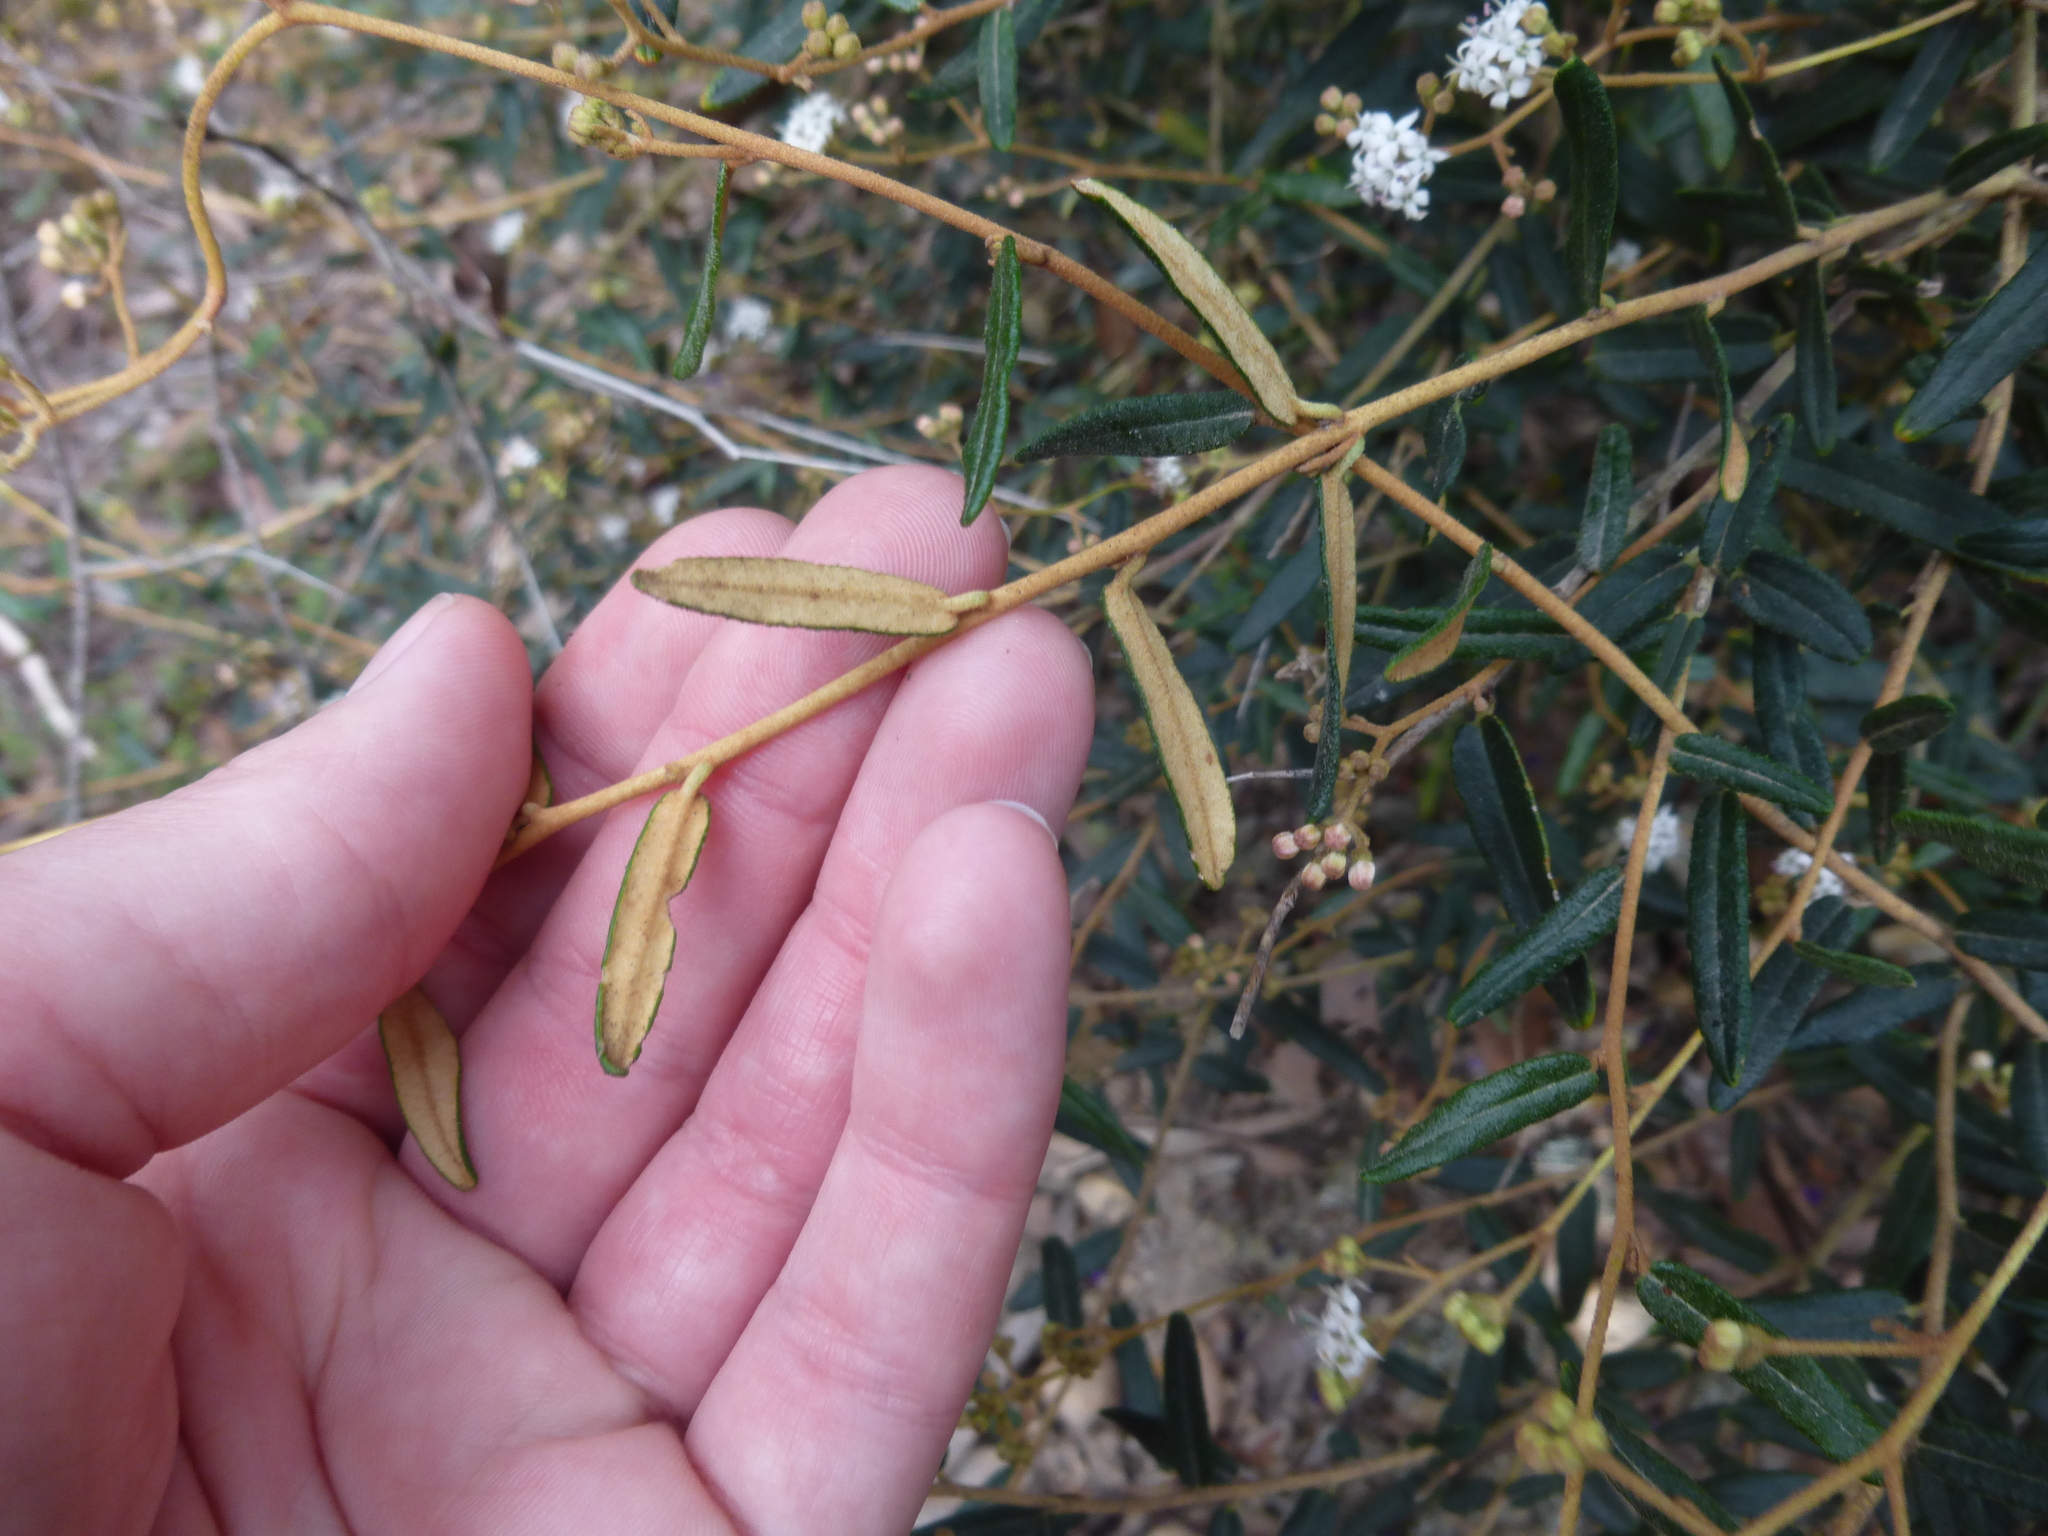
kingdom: Plantae
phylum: Tracheophyta
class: Magnoliopsida
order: Apiales
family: Araliaceae
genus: Astrotricha
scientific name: Astrotricha ledifolia
